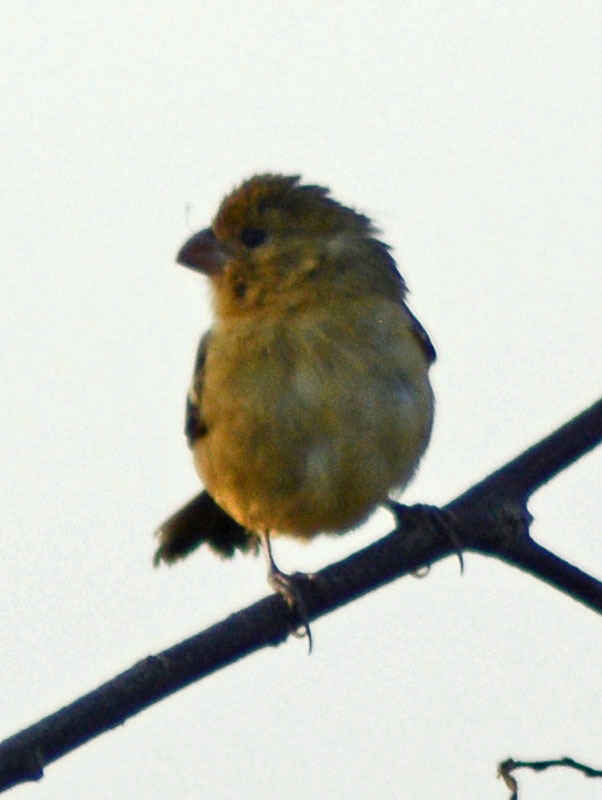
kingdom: Animalia
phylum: Chordata
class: Aves
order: Passeriformes
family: Thraupidae
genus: Sporophila
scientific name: Sporophila morelleti
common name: Morelet's seedeater
